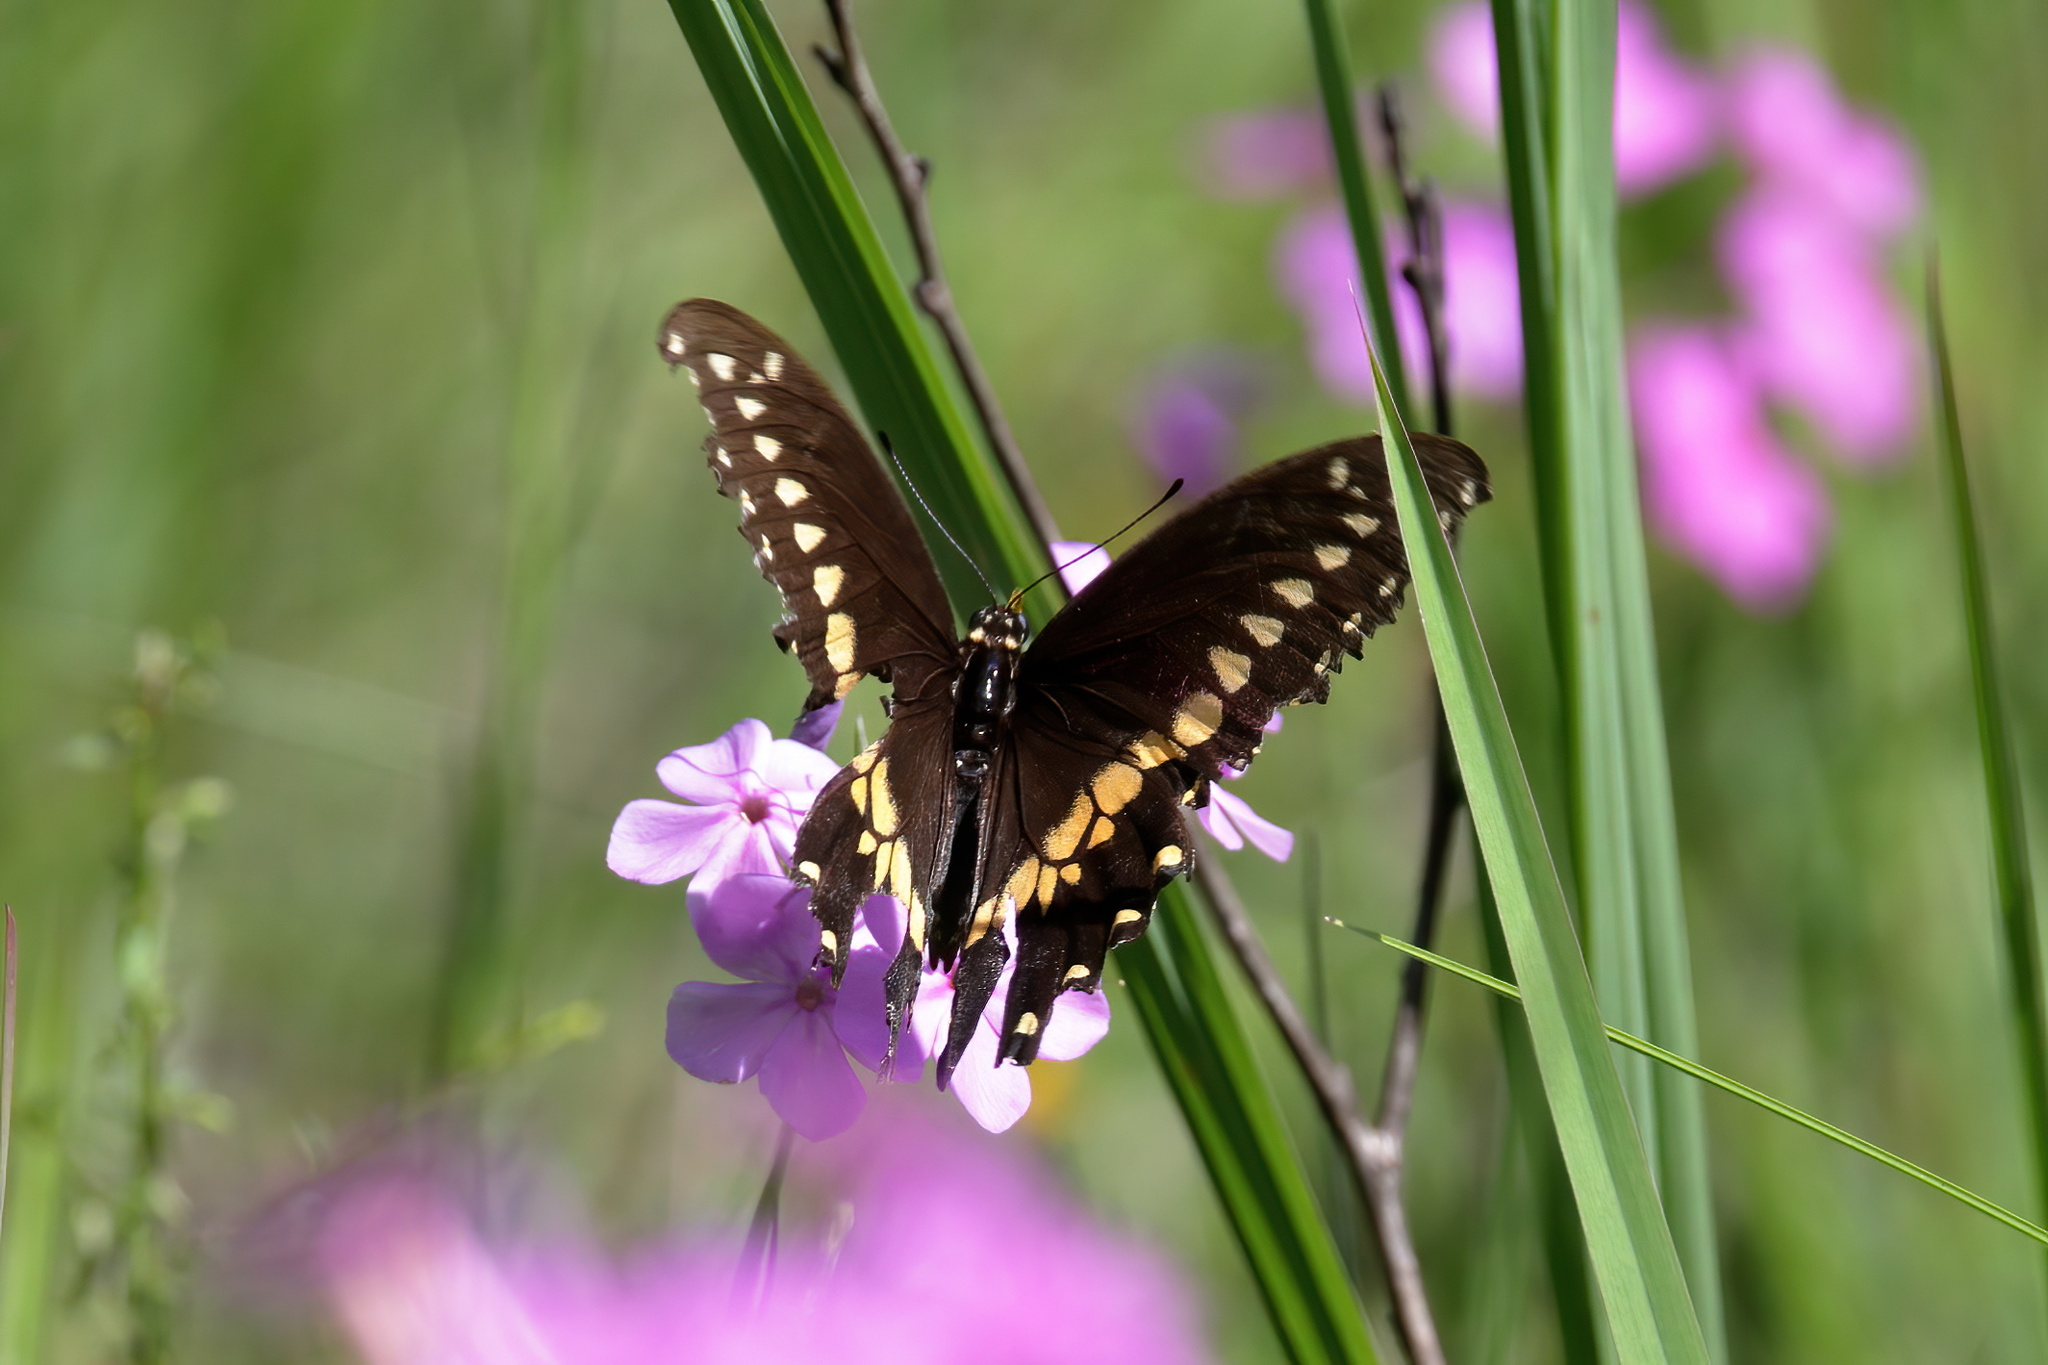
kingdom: Animalia
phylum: Arthropoda
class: Insecta
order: Lepidoptera
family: Papilionidae
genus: Papilio
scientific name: Papilio polyxenes
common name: Black swallowtail
